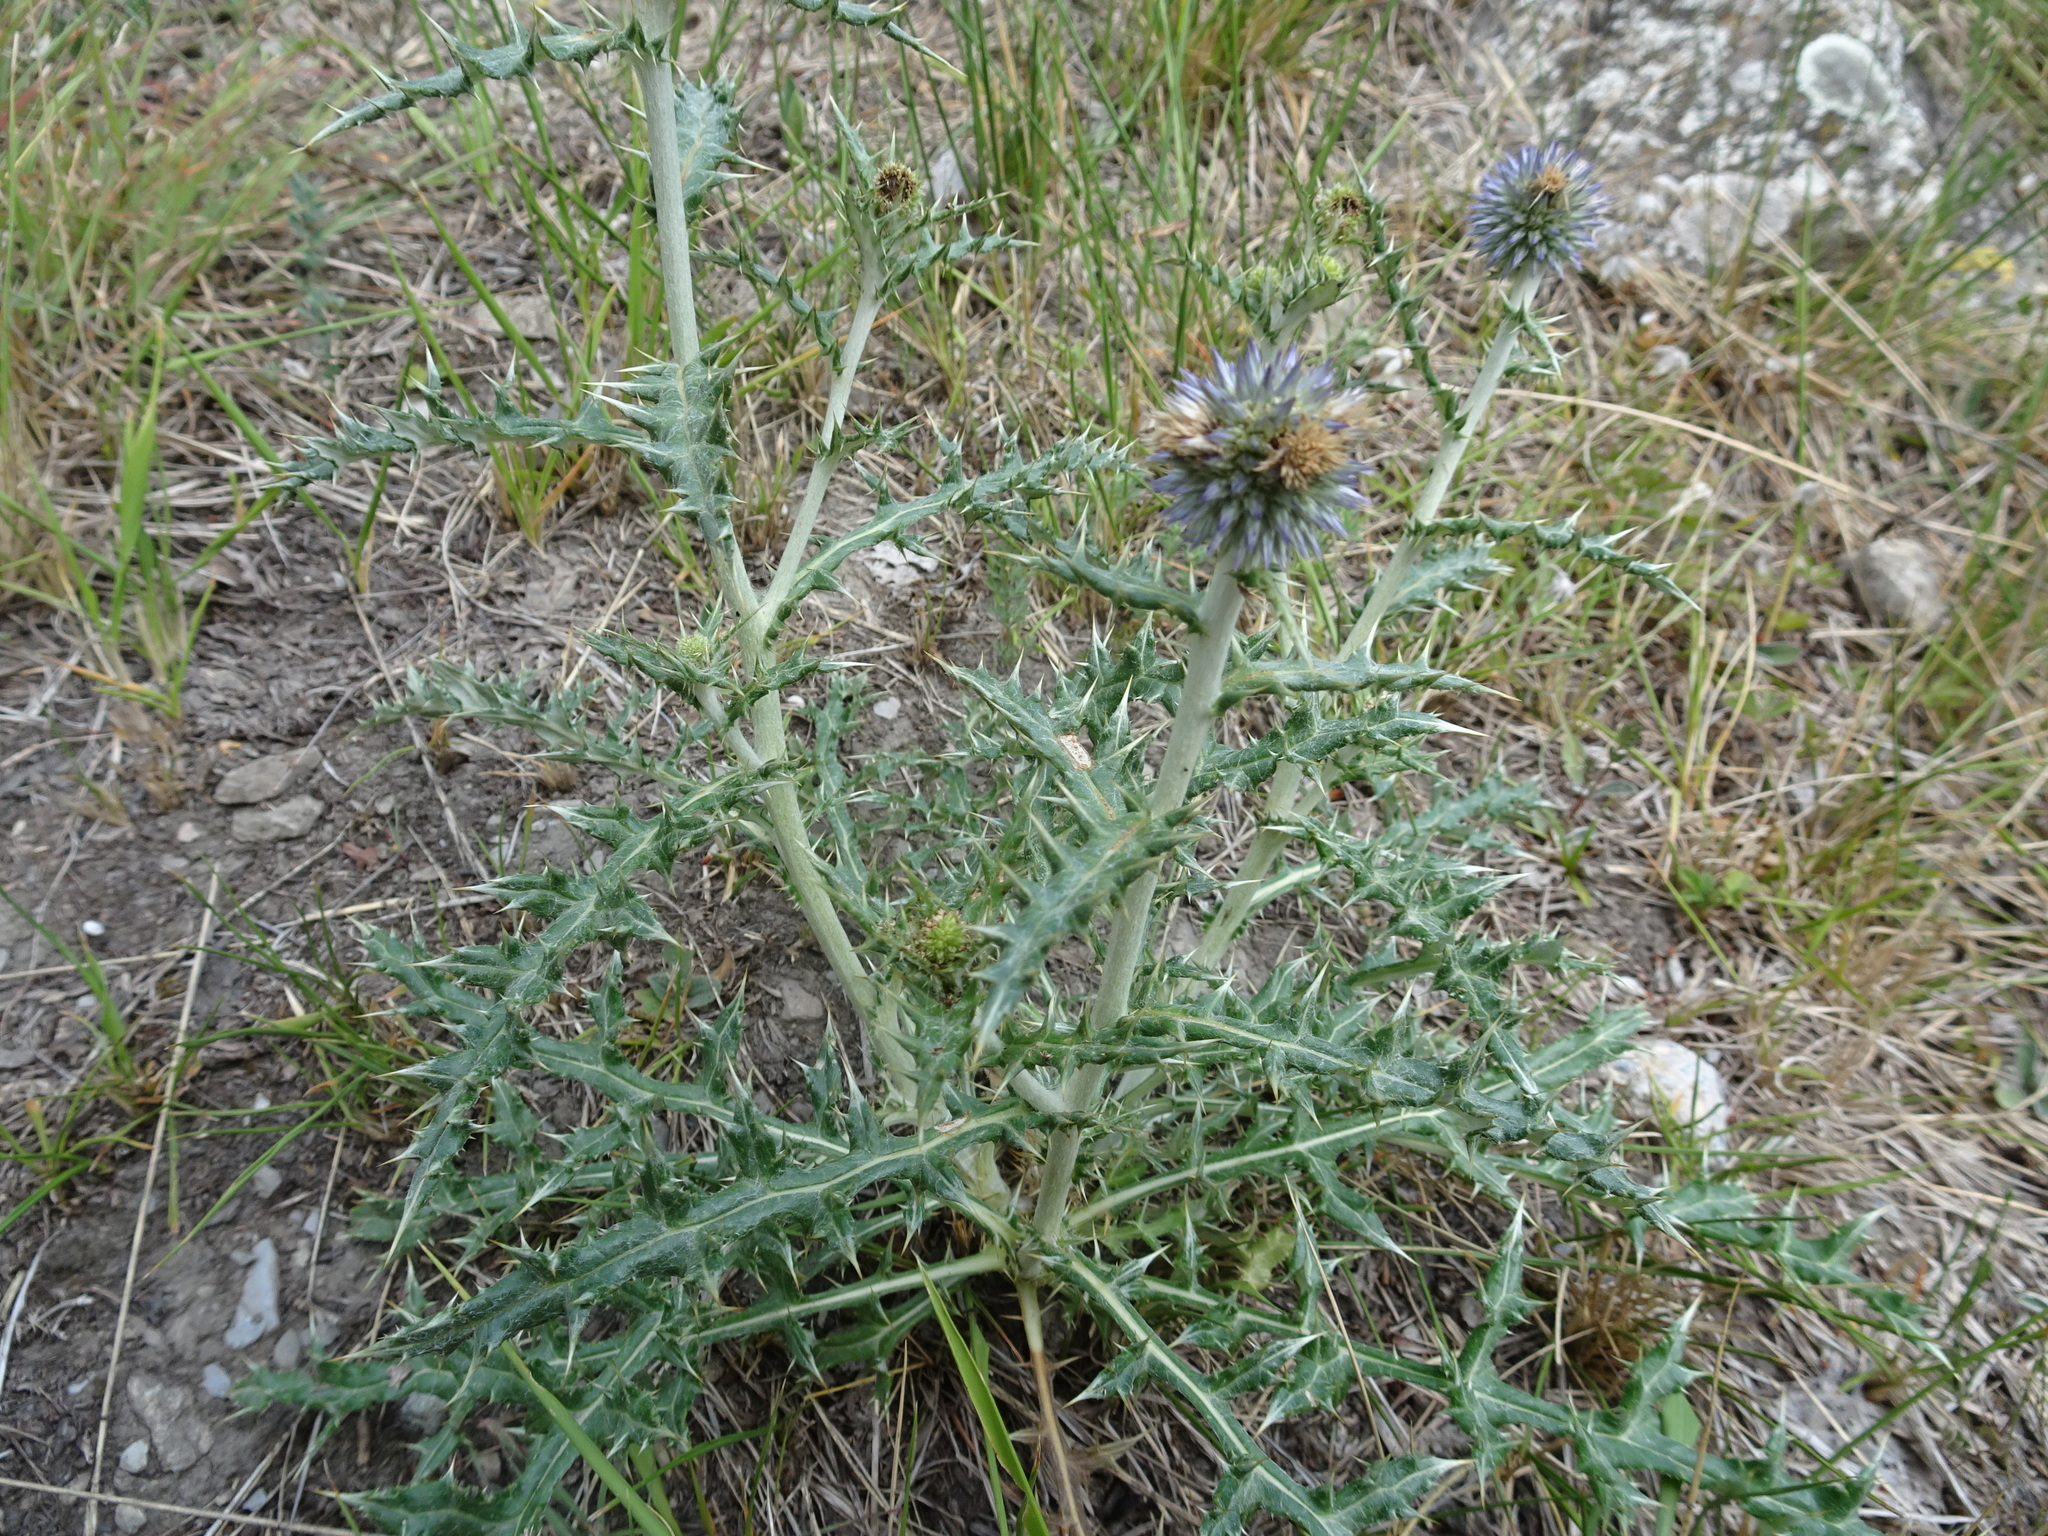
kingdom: Plantae
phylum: Tracheophyta
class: Magnoliopsida
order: Asterales
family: Asteraceae
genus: Echinops
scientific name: Echinops ritro
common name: Globe thistle
